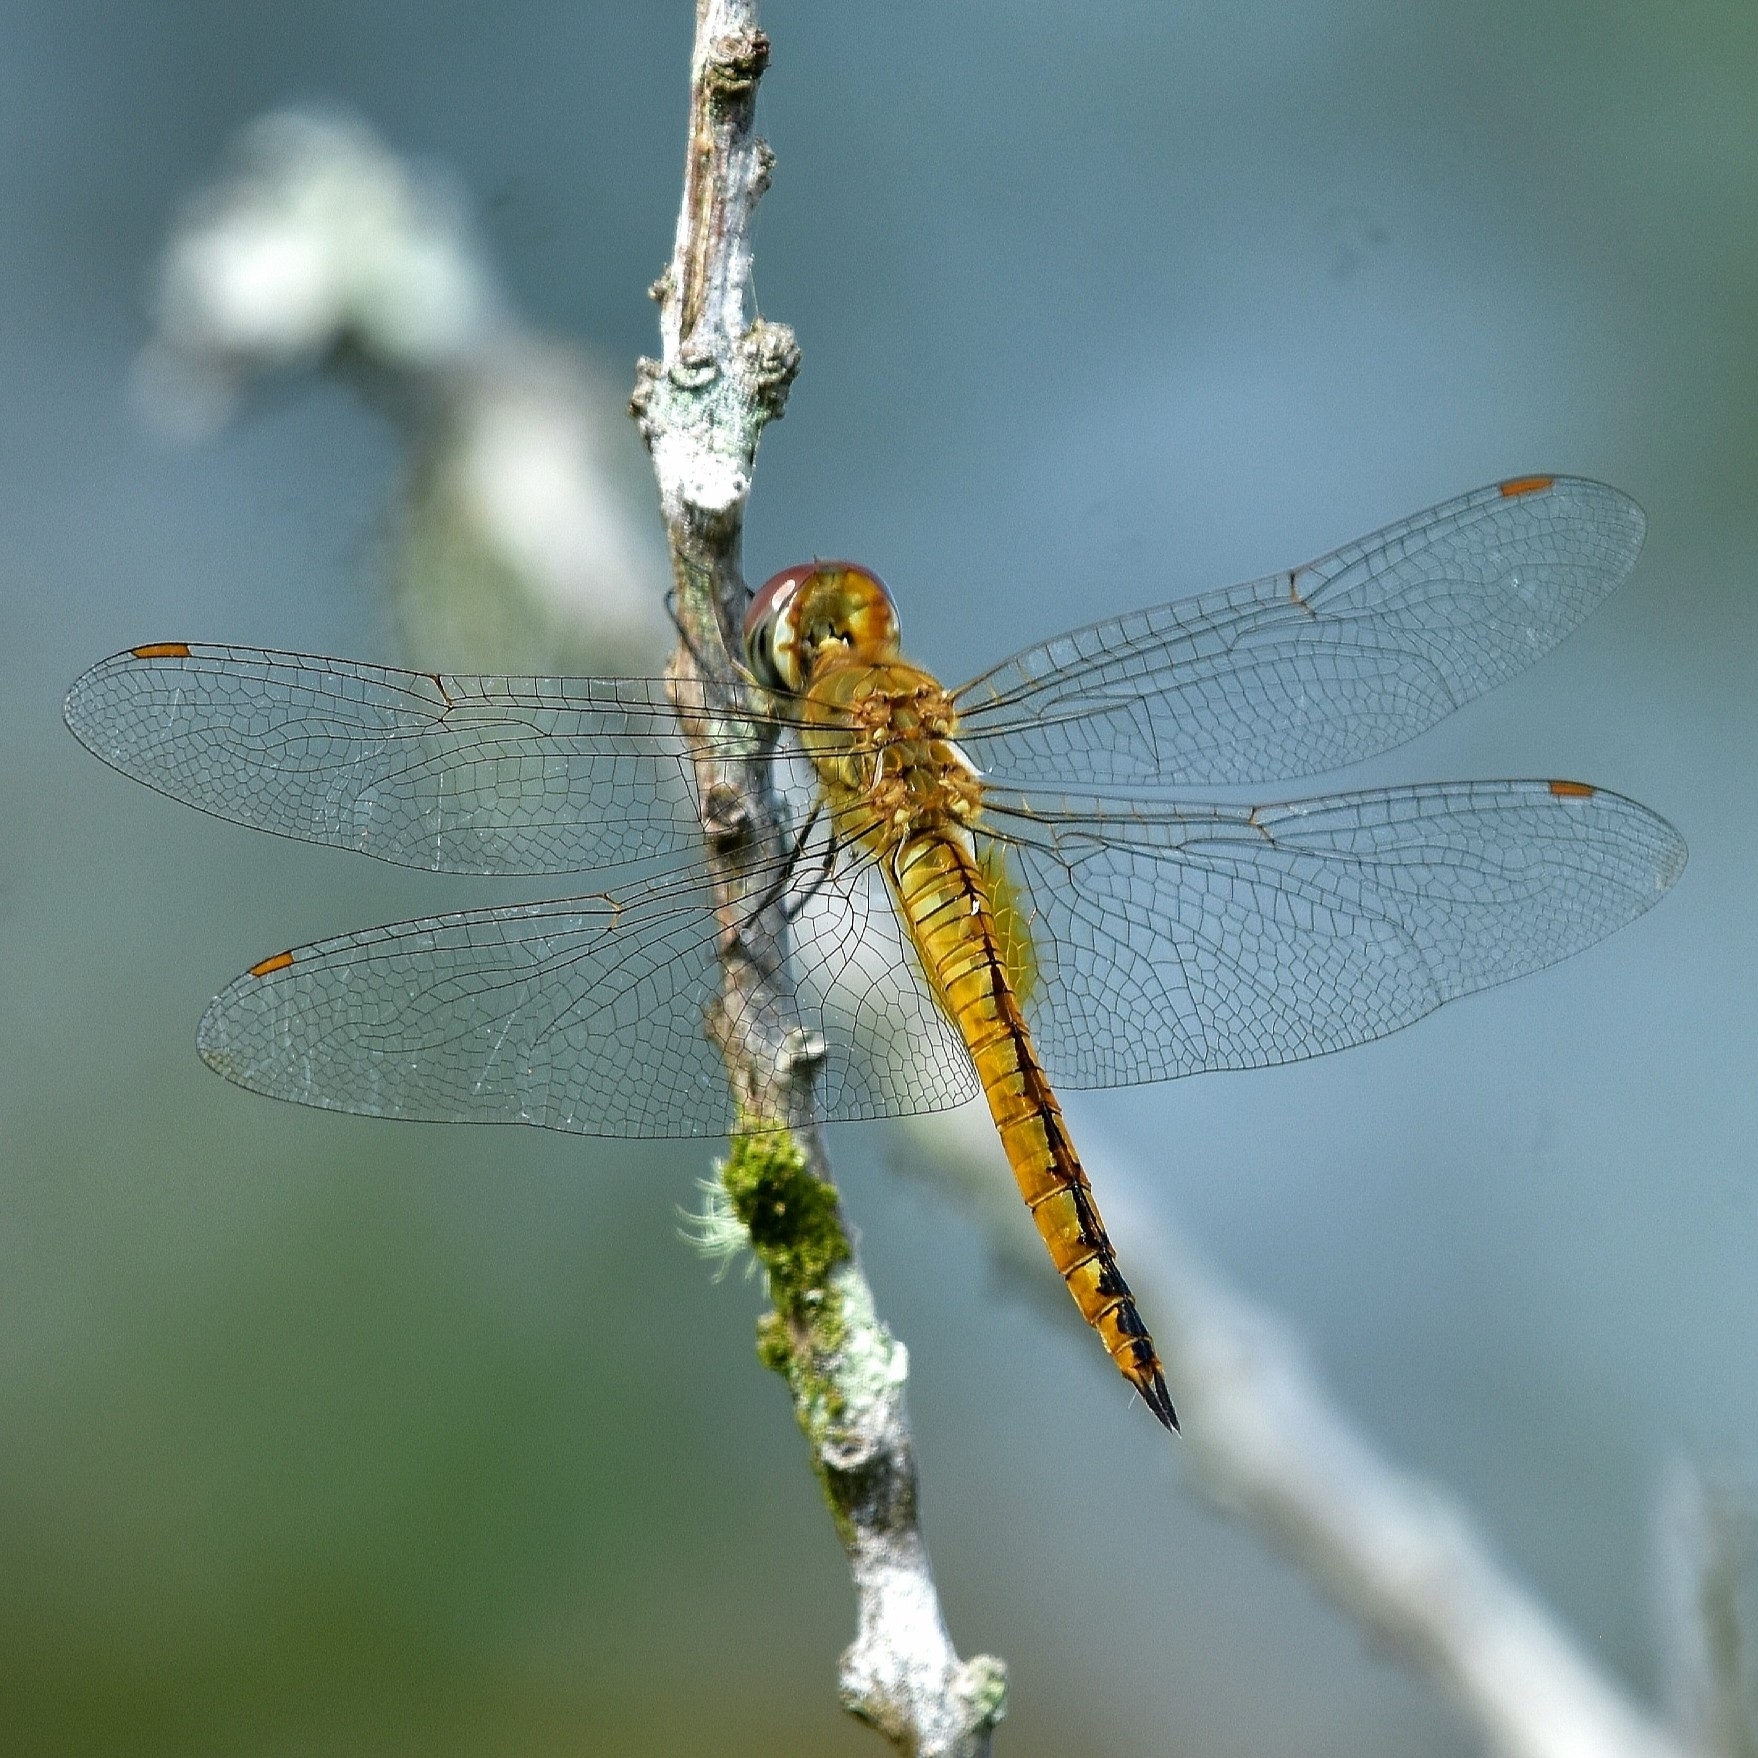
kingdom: Animalia
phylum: Arthropoda
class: Insecta
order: Odonata
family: Libellulidae
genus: Pantala
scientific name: Pantala flavescens
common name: Wandering glider
